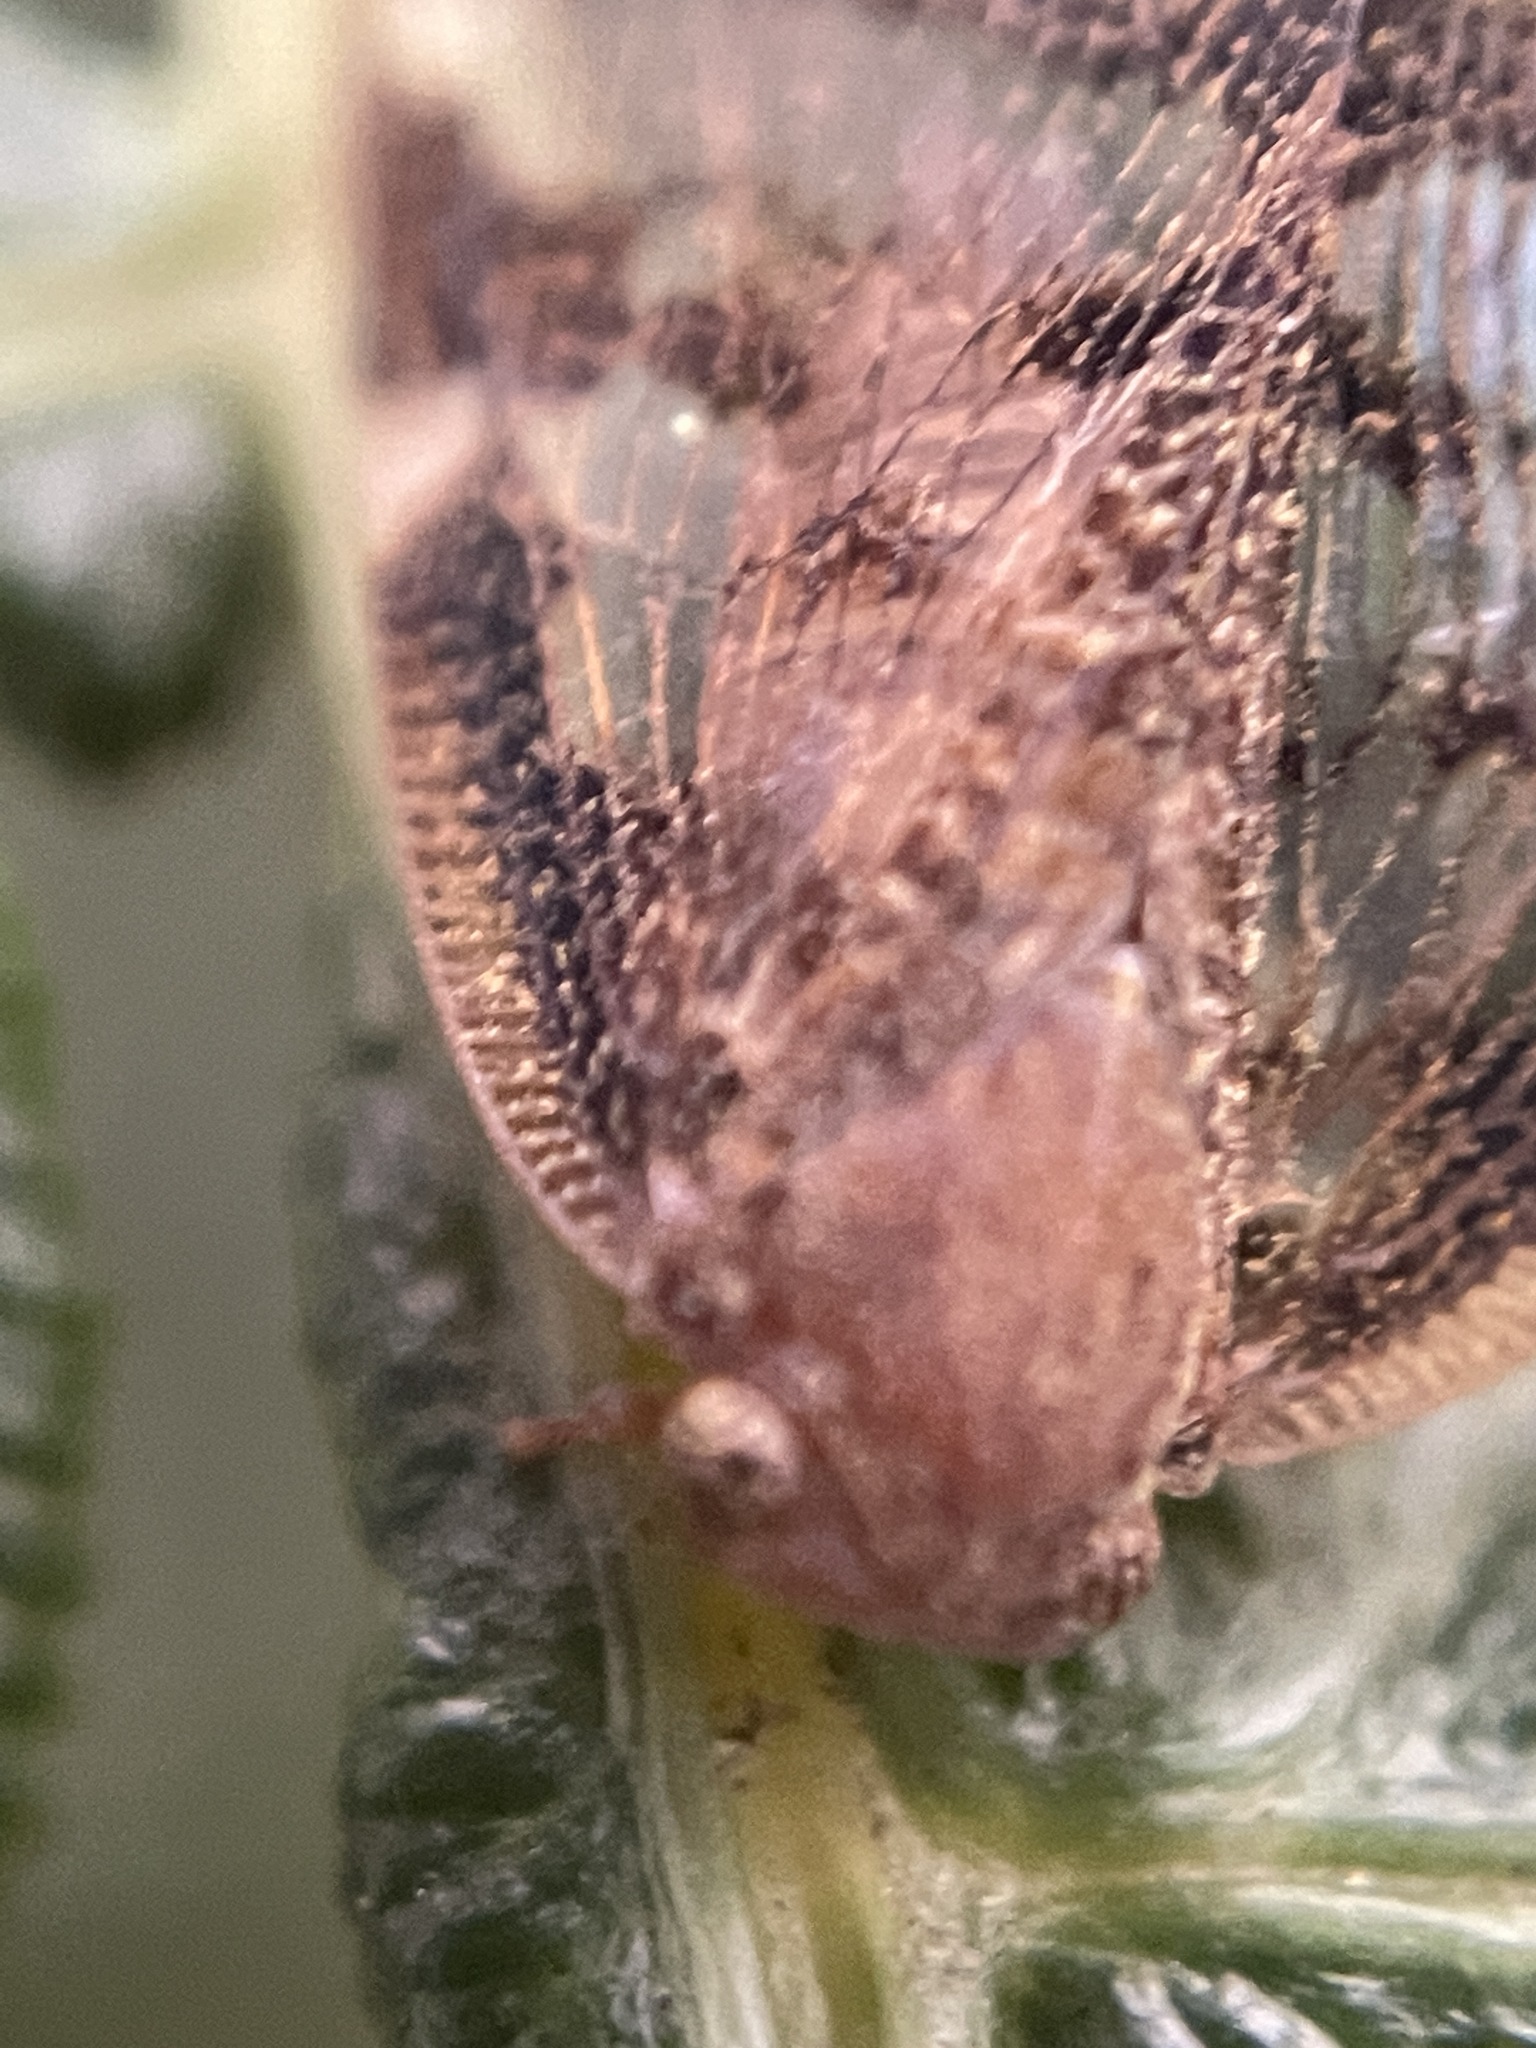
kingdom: Animalia
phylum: Arthropoda
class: Insecta
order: Hemiptera
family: Ricaniidae
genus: Scolypopa
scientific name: Scolypopa australis
